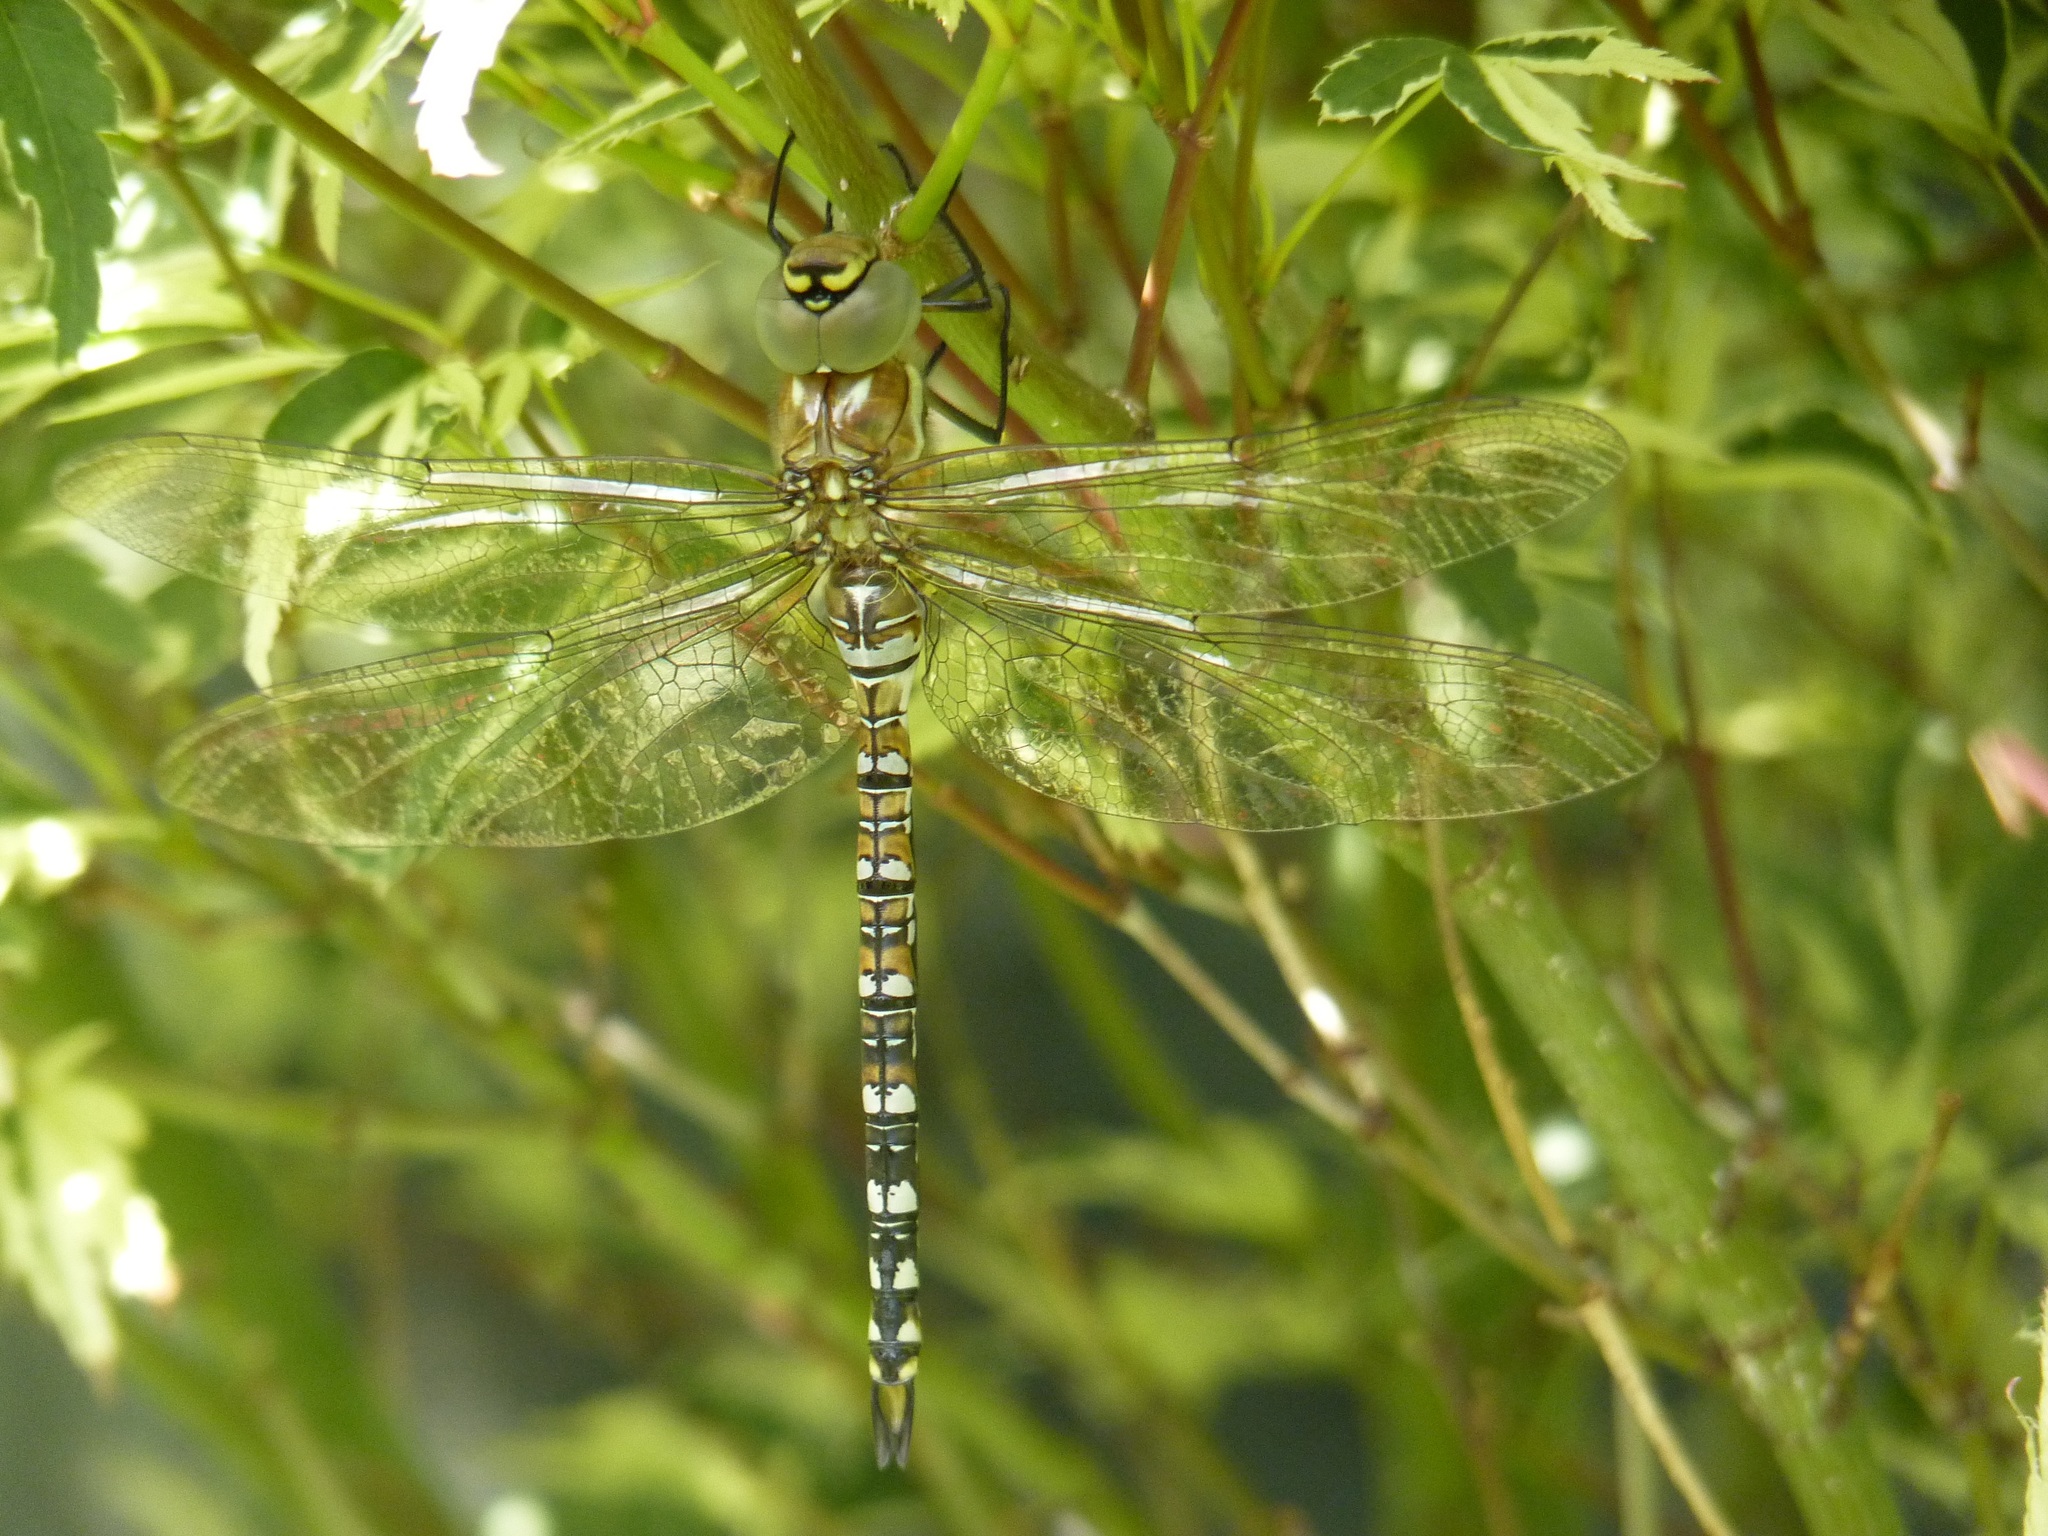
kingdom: Animalia
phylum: Arthropoda
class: Insecta
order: Odonata
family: Aeshnidae
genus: Aeshna
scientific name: Aeshna mixta
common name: Migrant hawker
